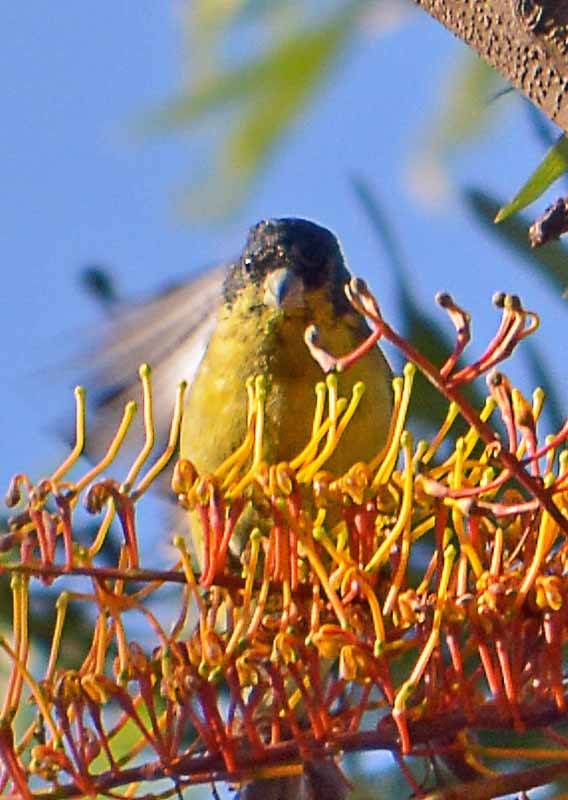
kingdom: Animalia
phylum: Chordata
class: Aves
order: Passeriformes
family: Fringillidae
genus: Spinus
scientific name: Spinus psaltria
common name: Lesser goldfinch
